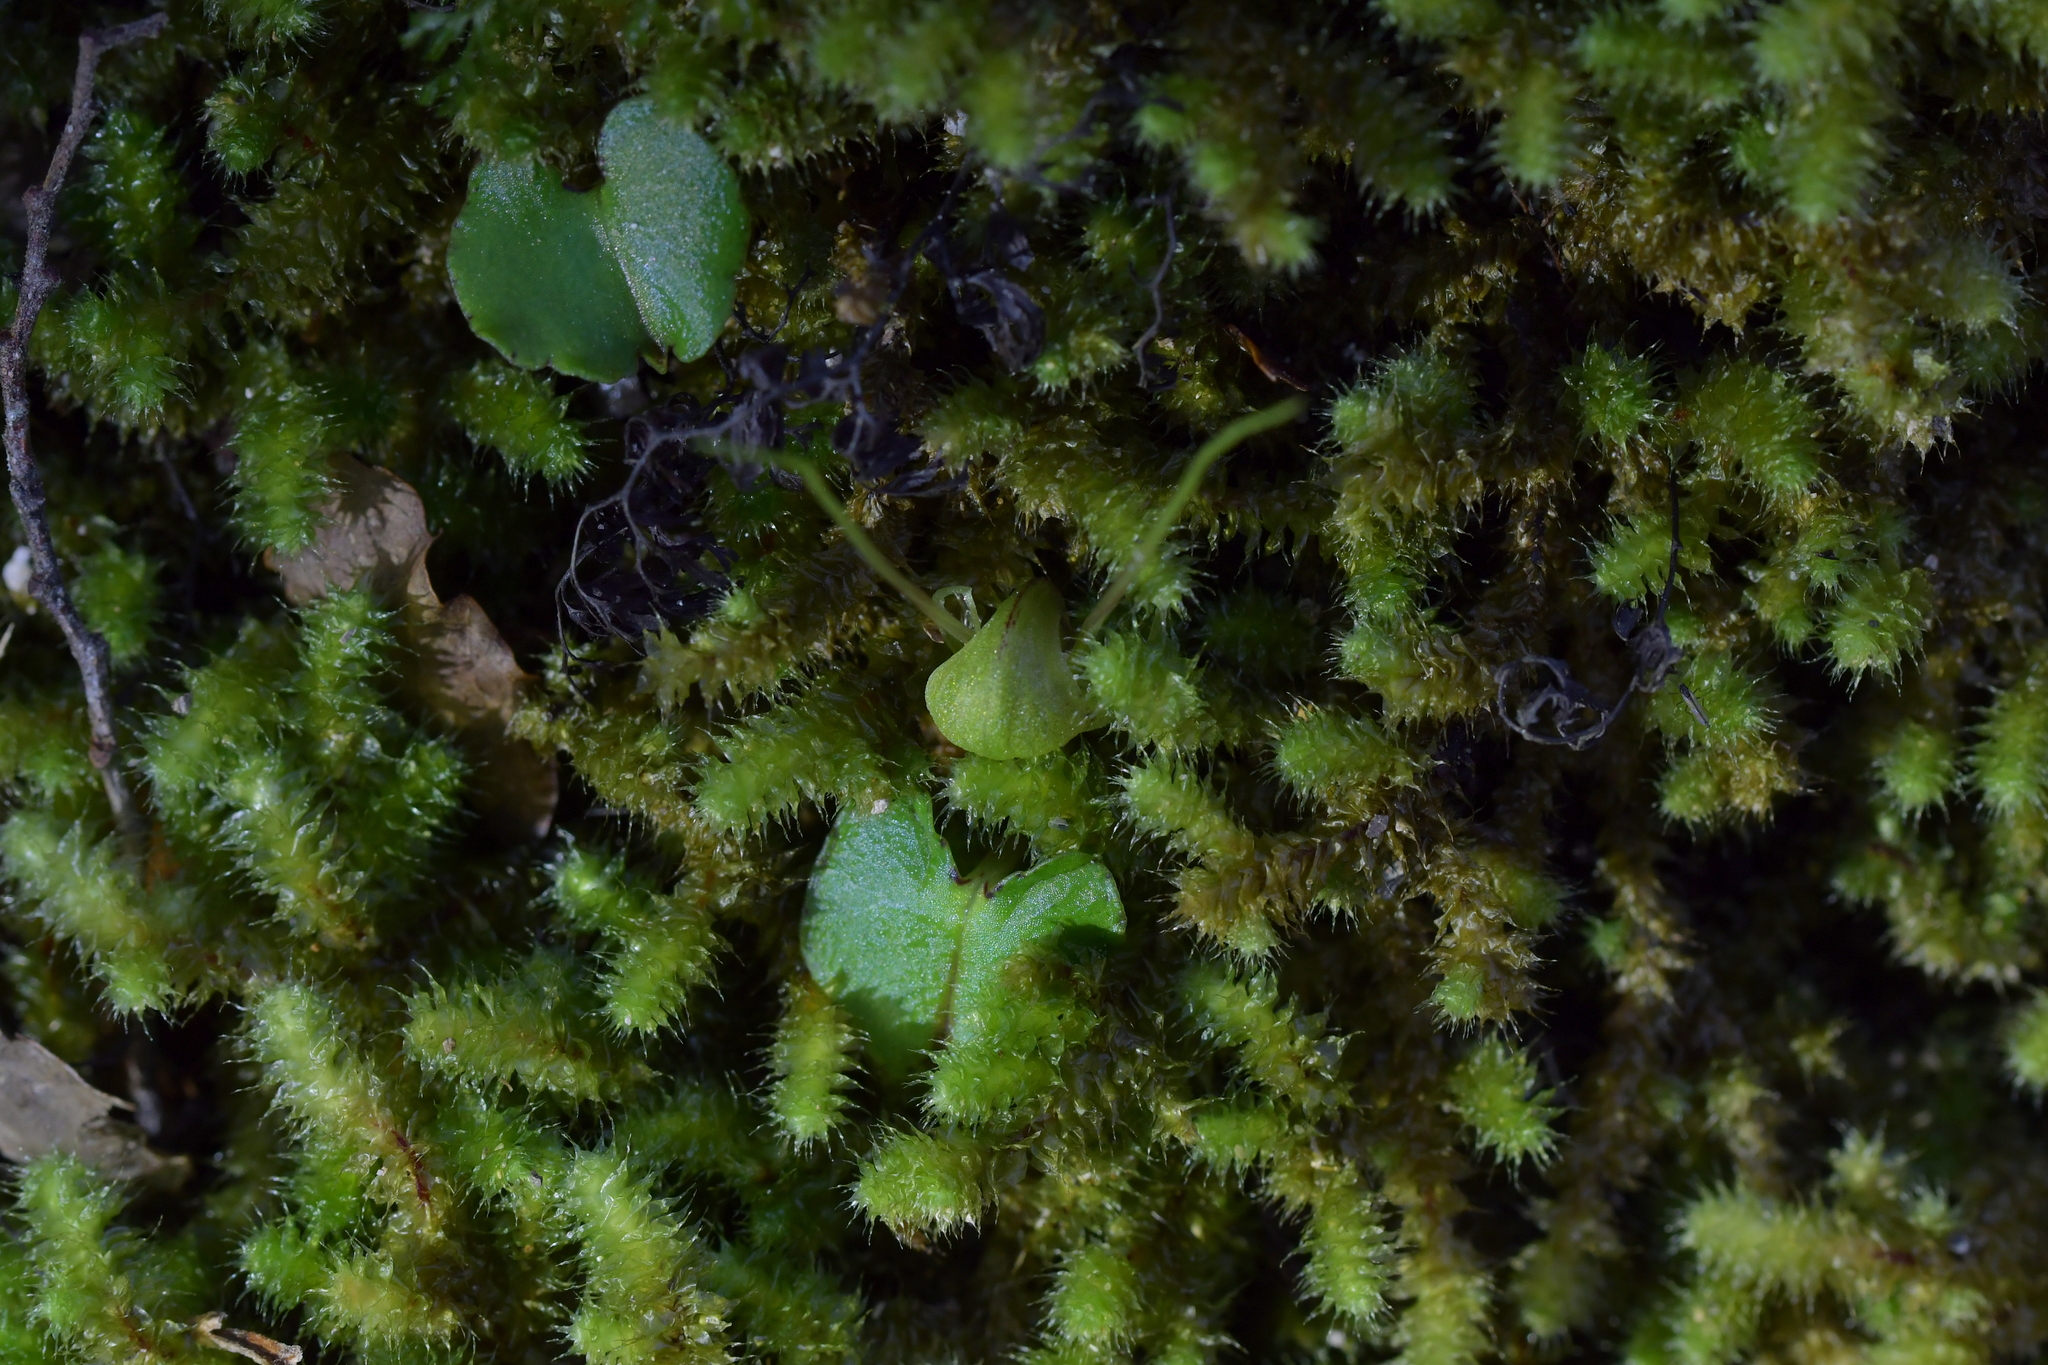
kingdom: Plantae
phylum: Tracheophyta
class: Liliopsida
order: Asparagales
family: Orchidaceae
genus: Corybas
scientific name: Corybas walliae
